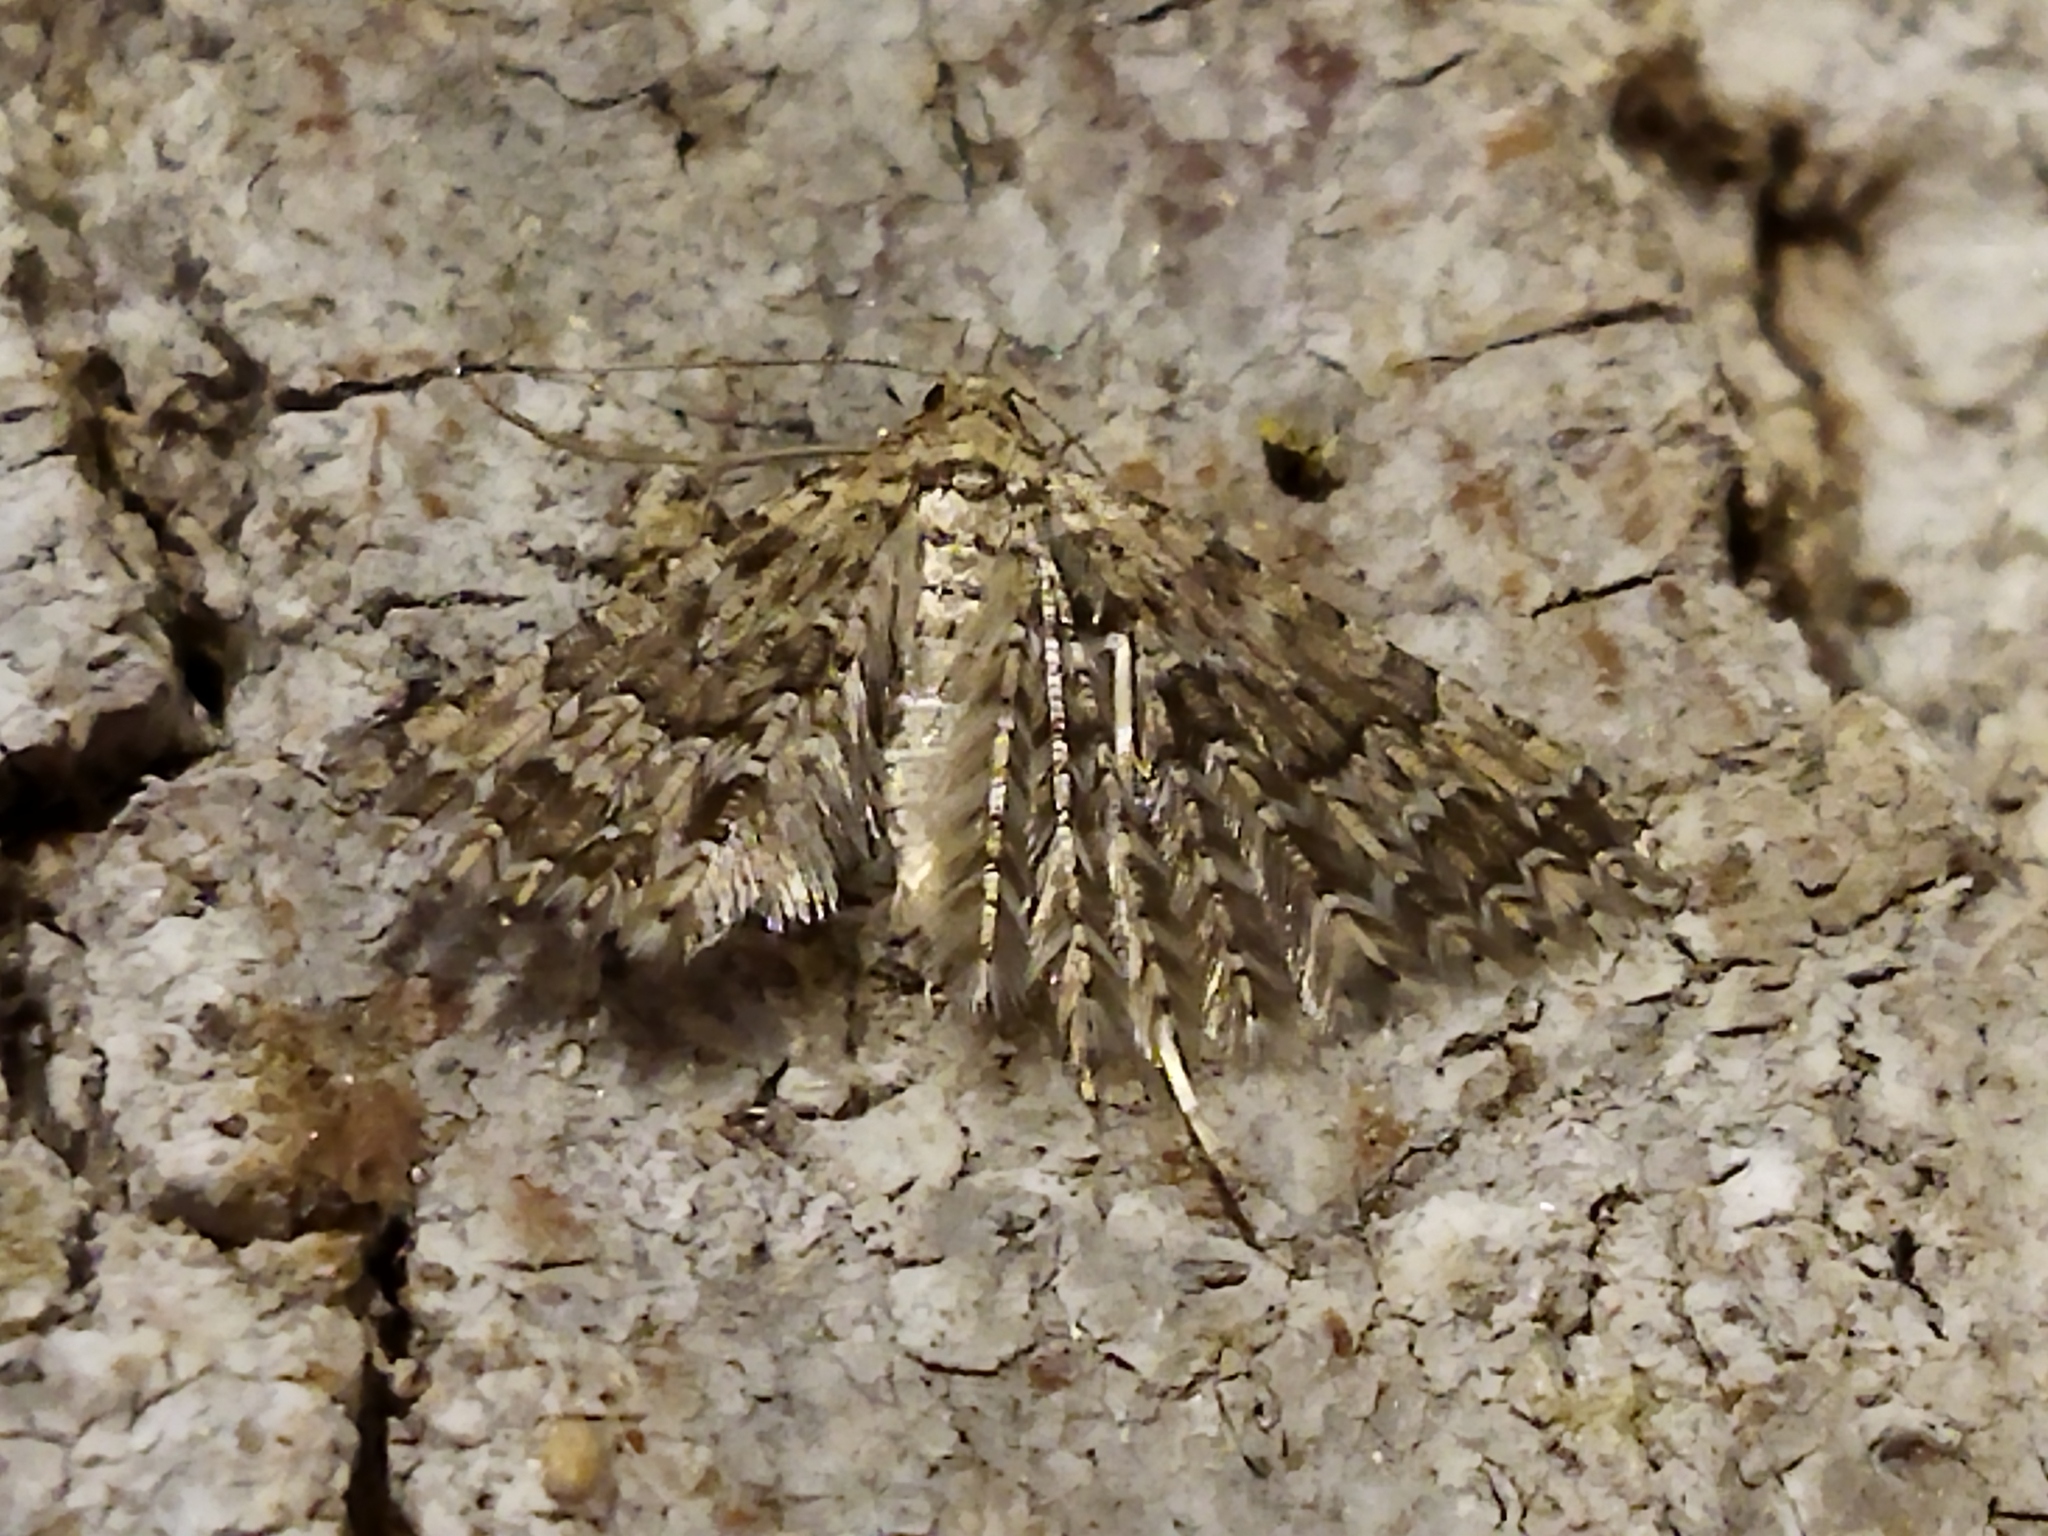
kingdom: Animalia
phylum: Arthropoda
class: Insecta
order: Lepidoptera
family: Alucitidae
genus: Alucita
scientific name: Alucita hexadactyla
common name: Twenty-plume moth
